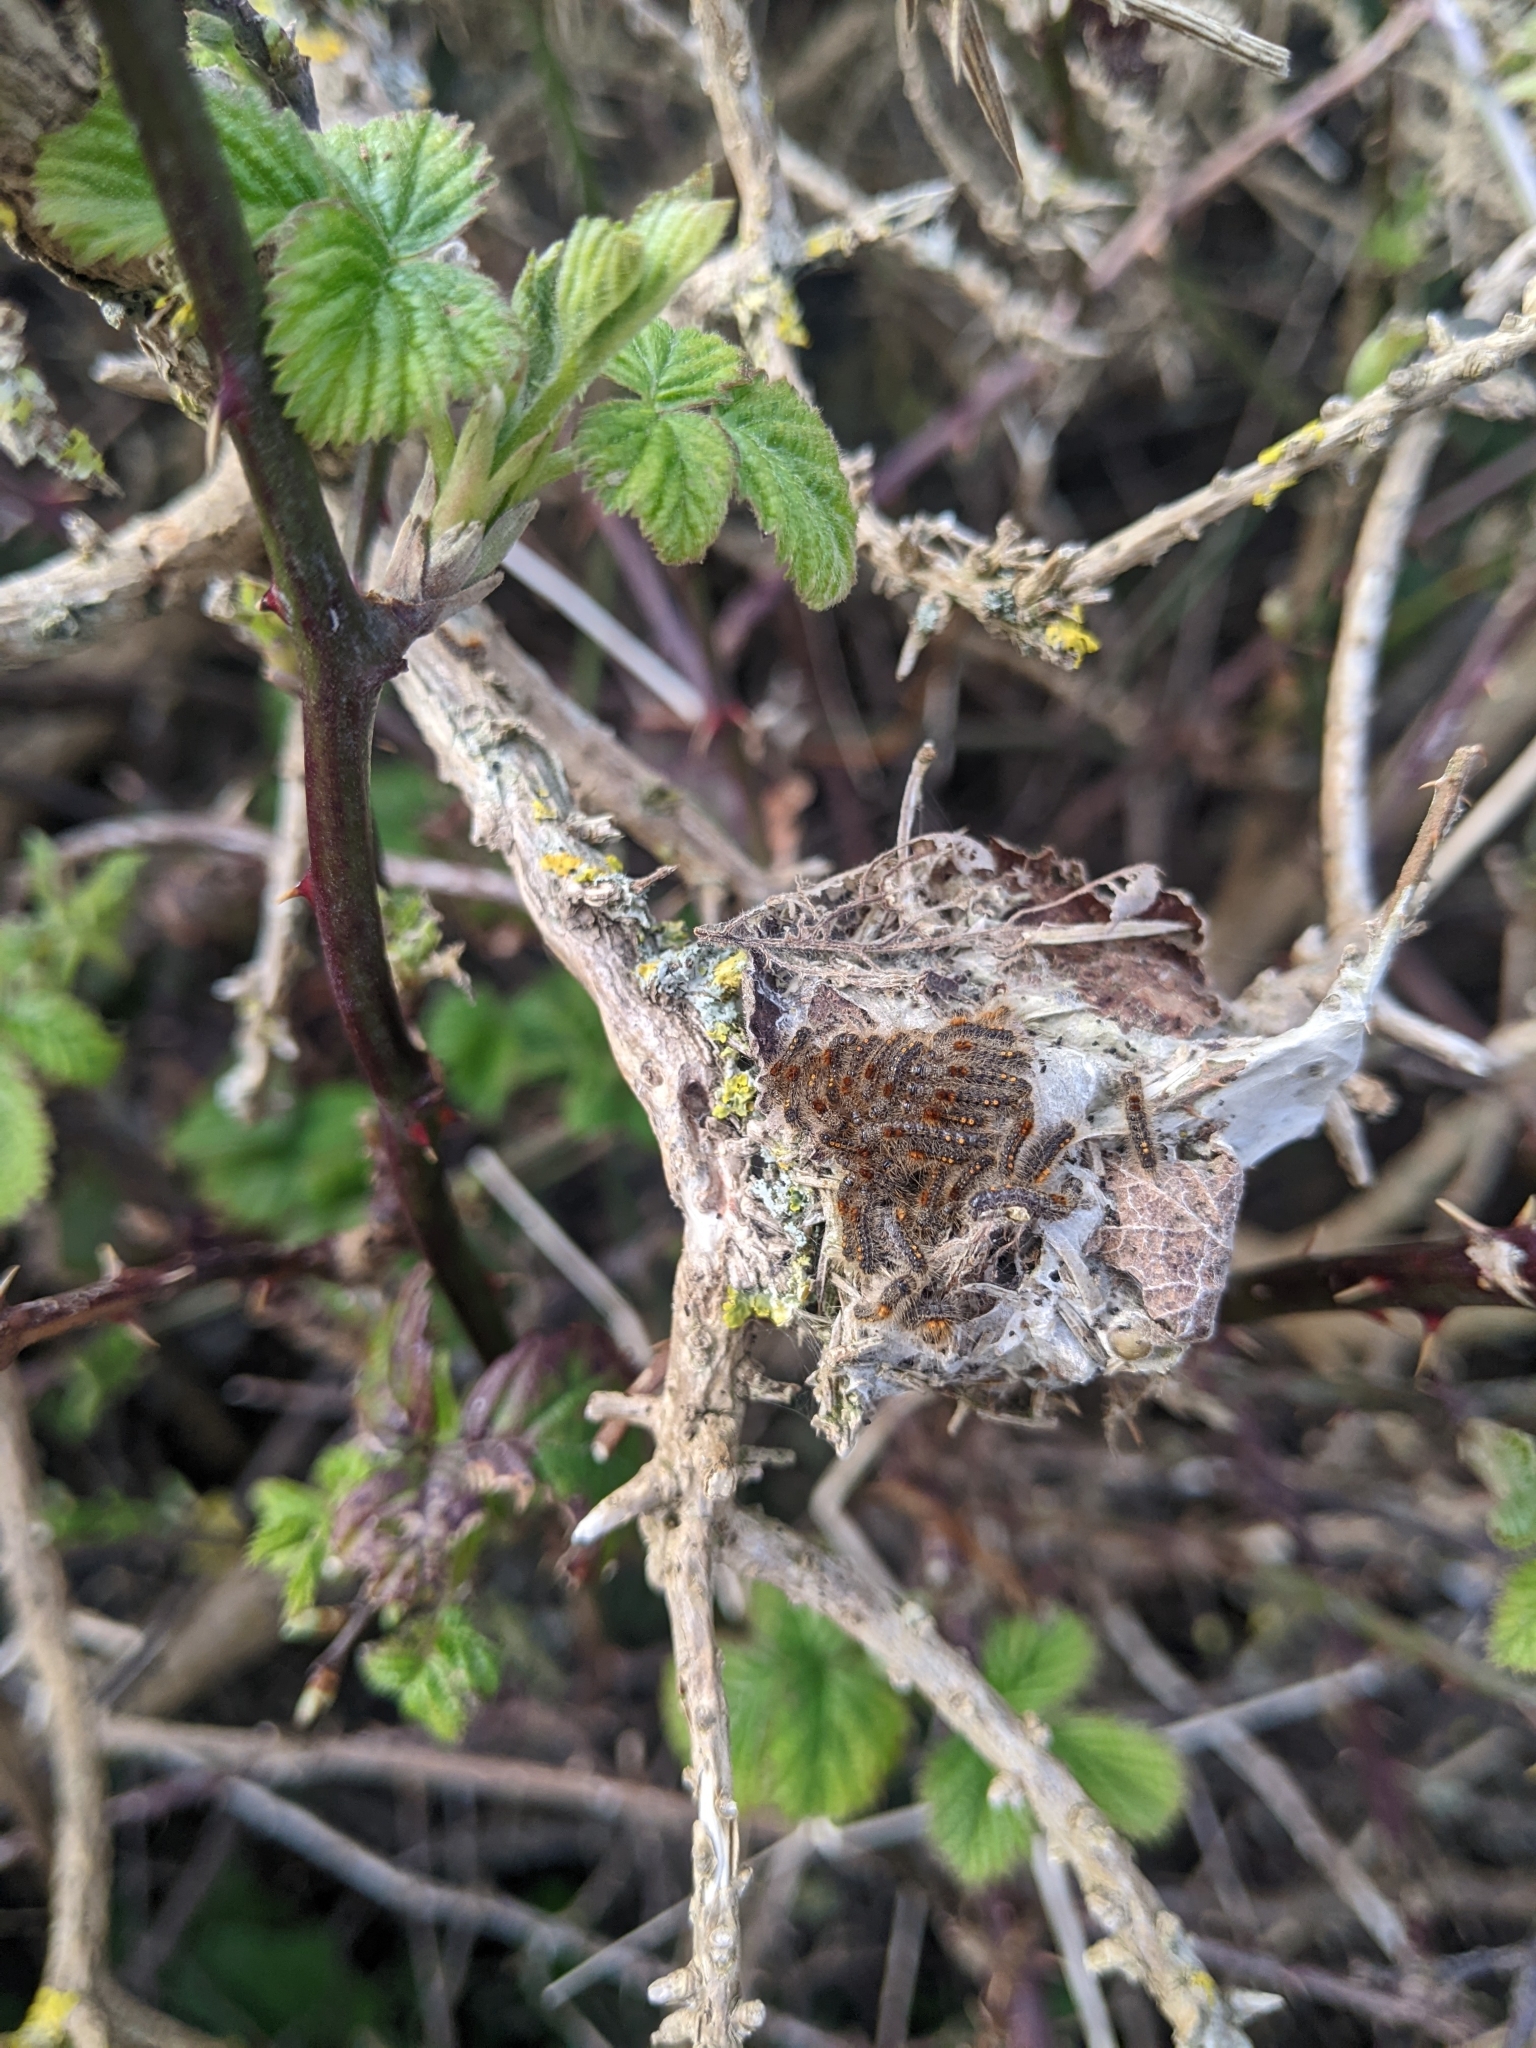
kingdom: Animalia
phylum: Arthropoda
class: Insecta
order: Lepidoptera
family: Erebidae
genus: Euproctis
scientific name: Euproctis chrysorrhoea
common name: Brown-tail
